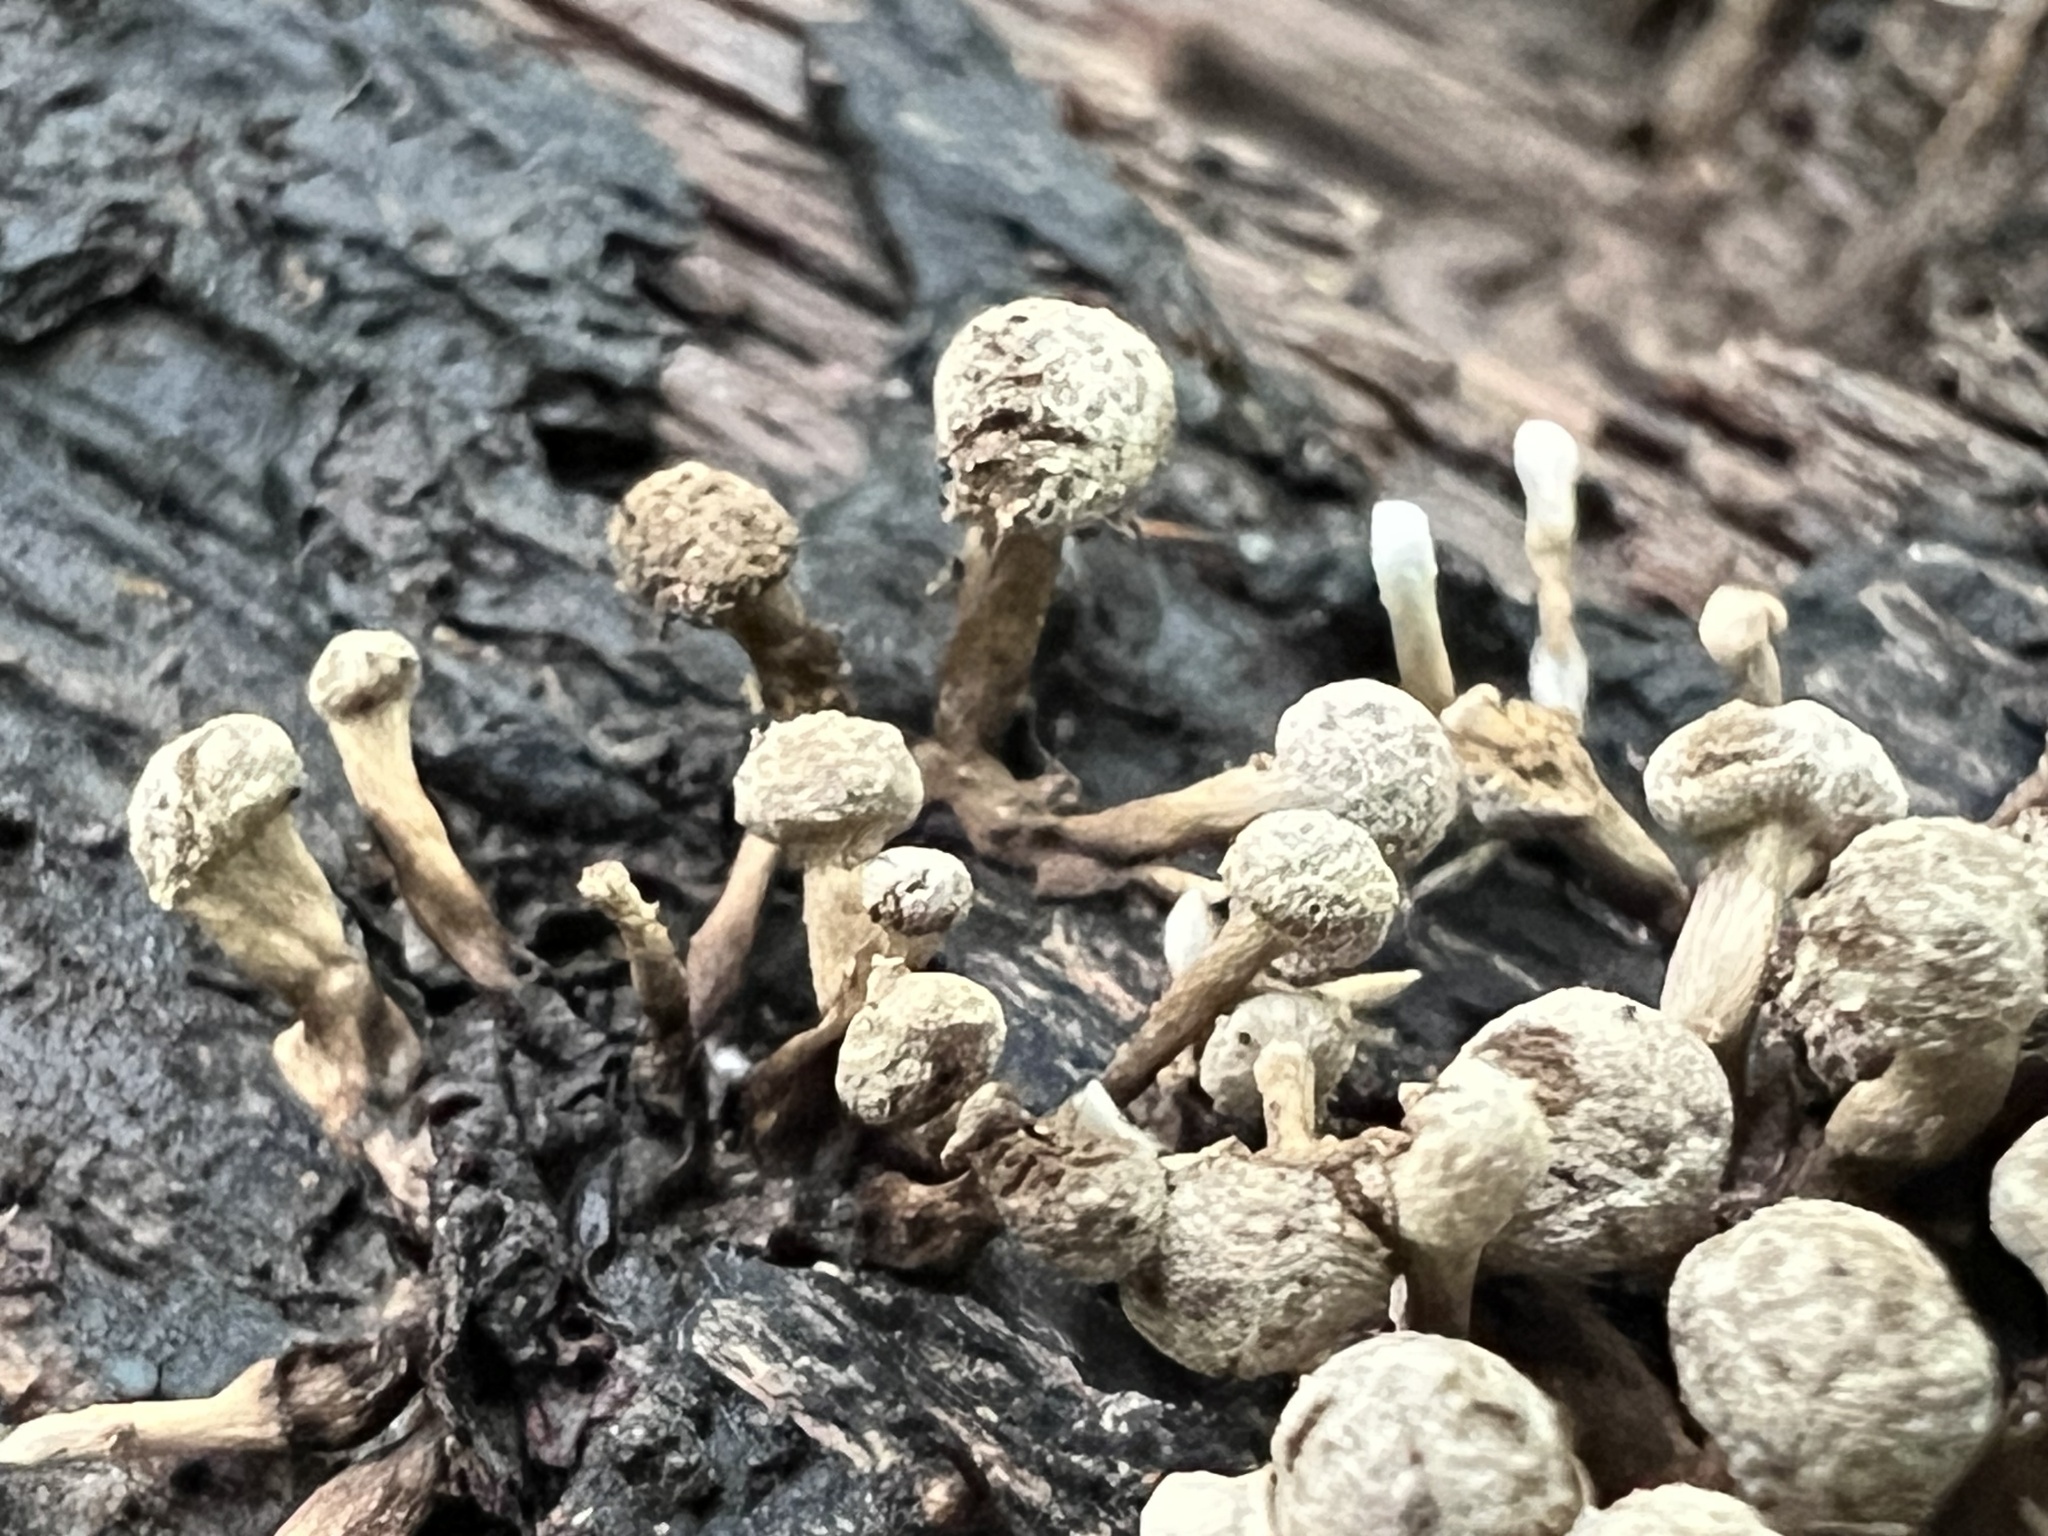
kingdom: Fungi
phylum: Basidiomycota
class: Atractiellomycetes
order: Atractiellales
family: Phleogenaceae
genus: Phleogena
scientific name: Phleogena faginea
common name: Fenugreek stalkball
